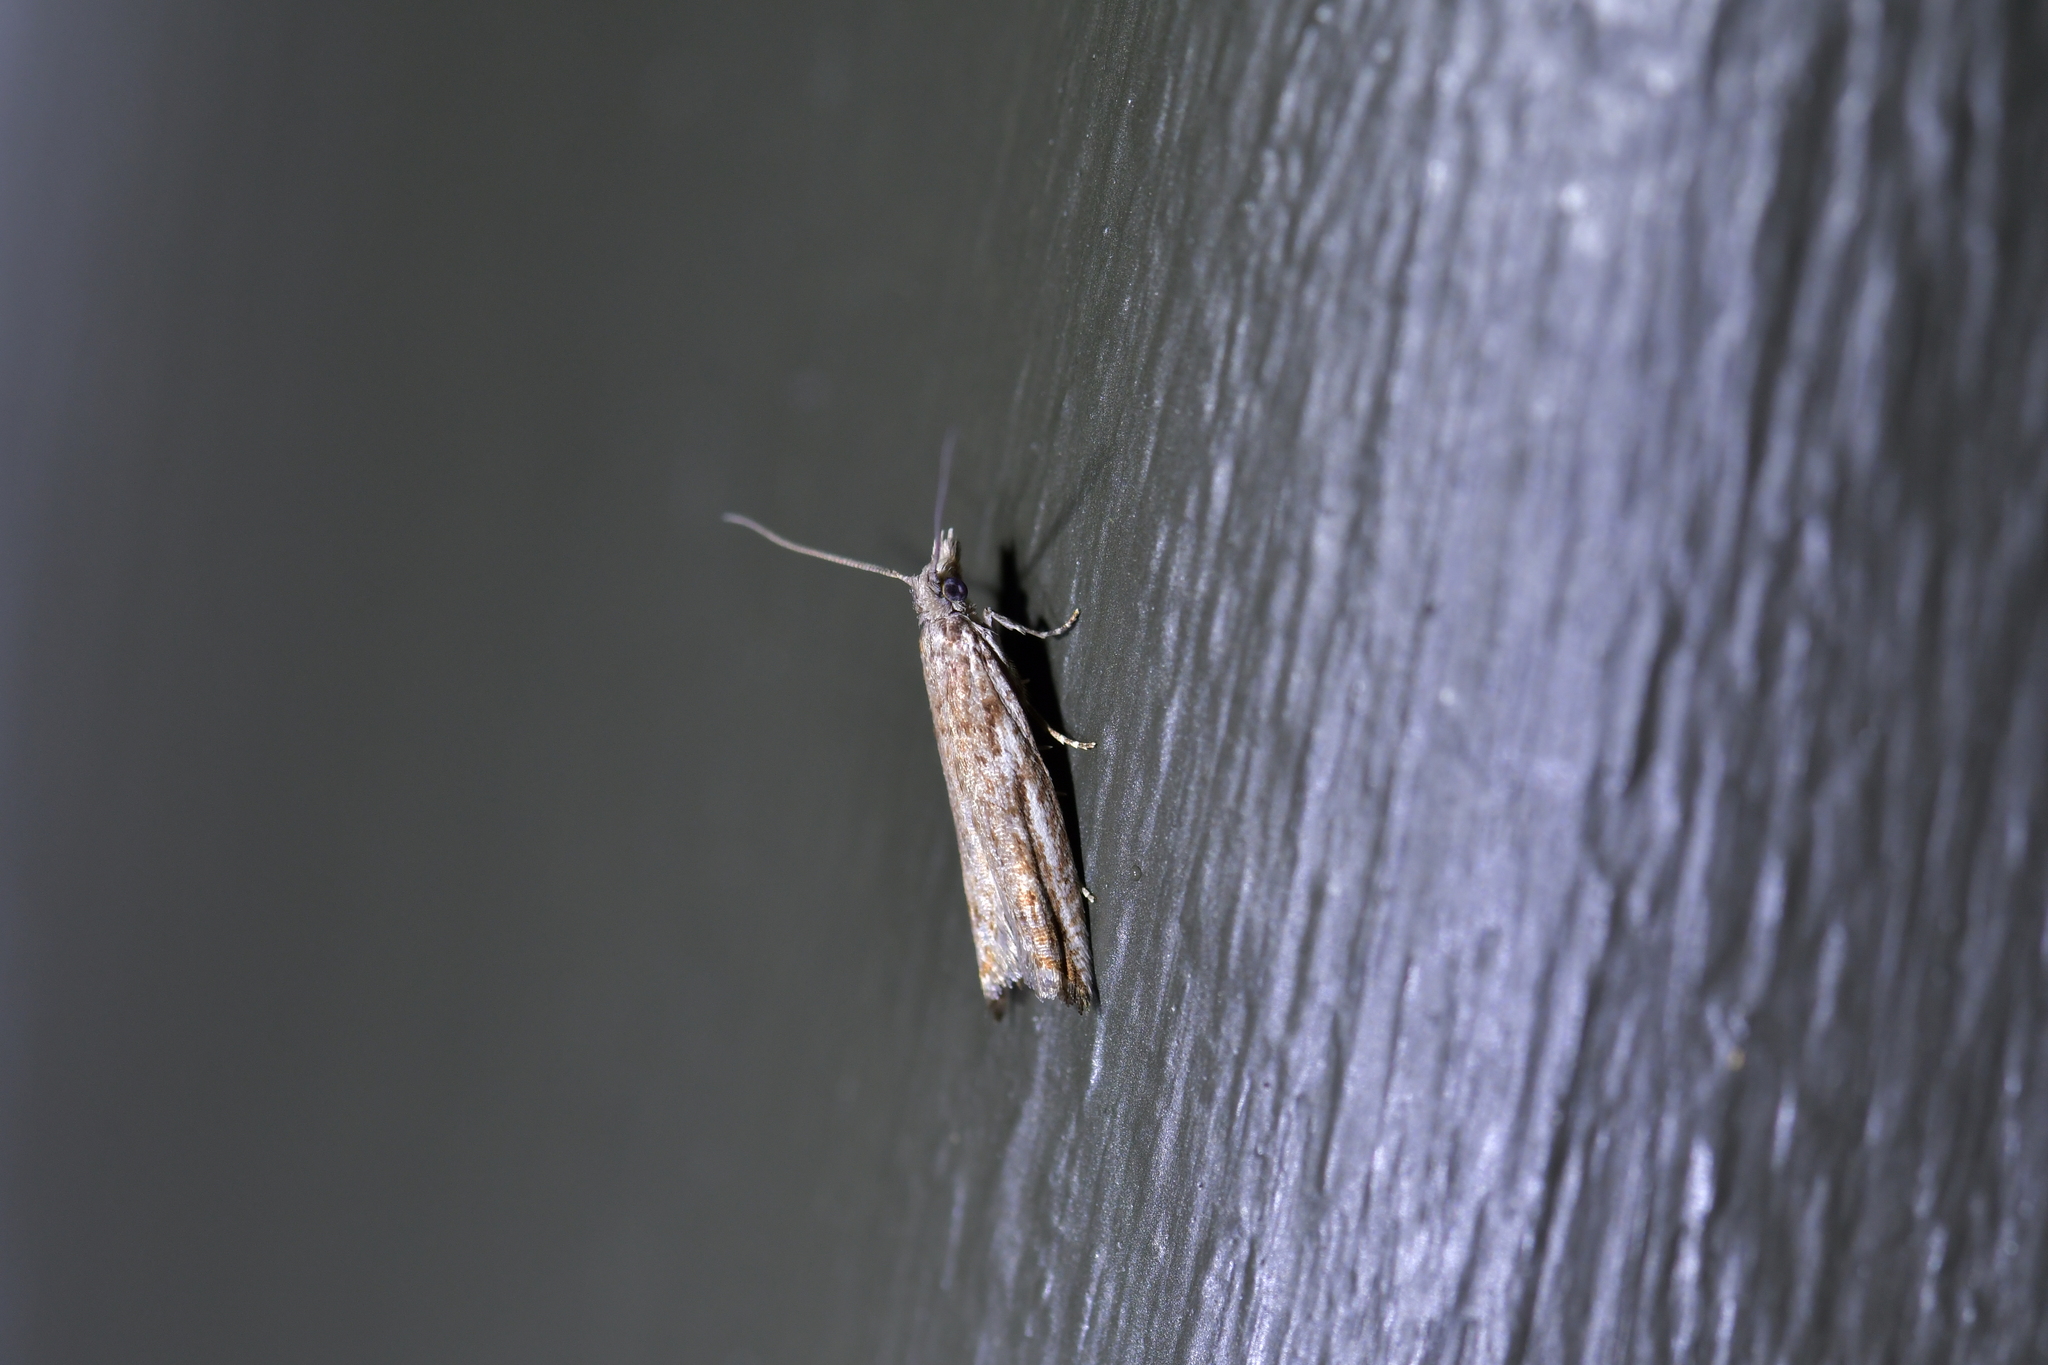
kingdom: Animalia
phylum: Arthropoda
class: Insecta
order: Lepidoptera
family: Tortricidae
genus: Holocola
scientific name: Holocola zopherana
